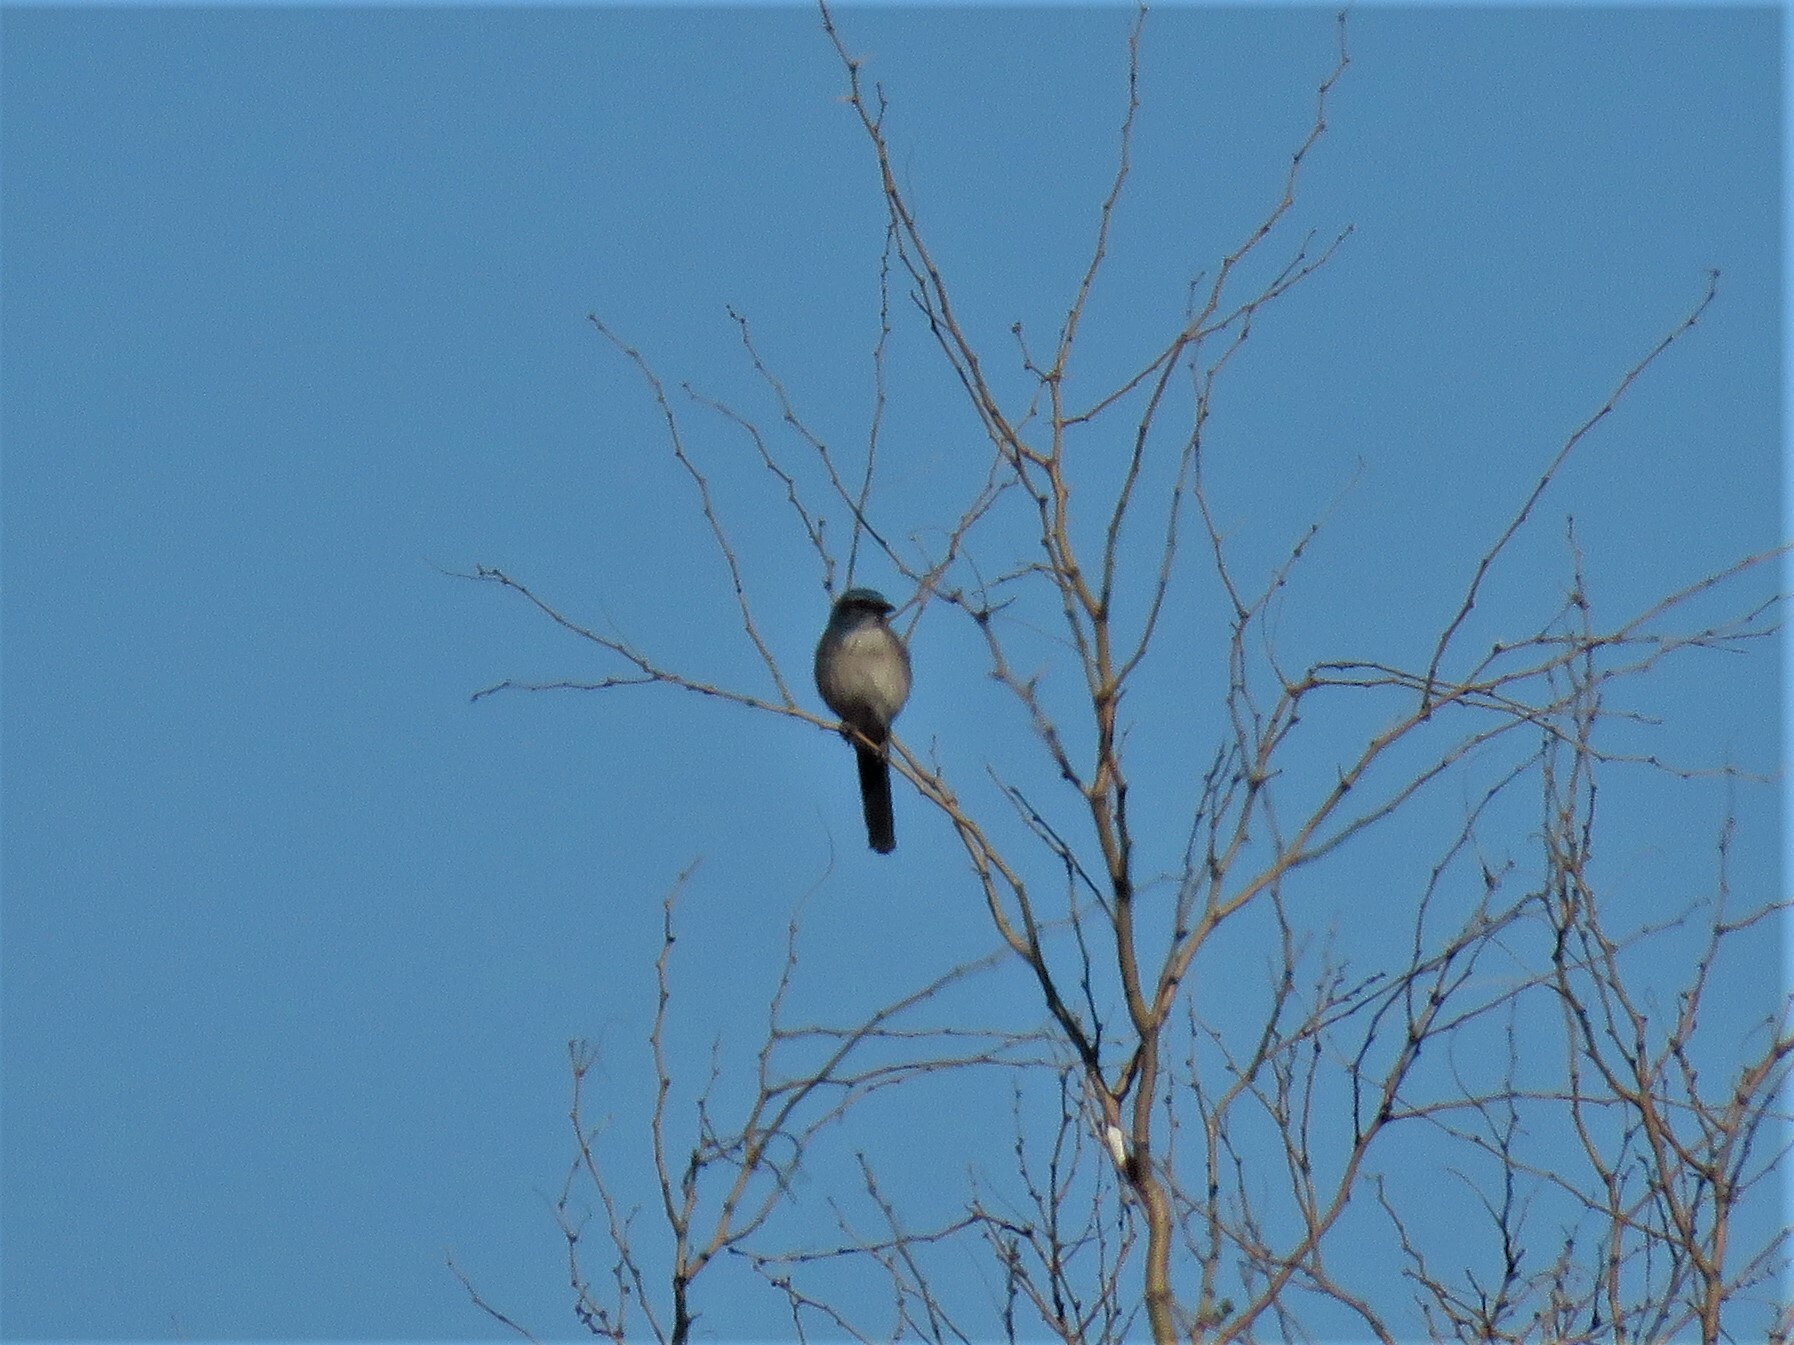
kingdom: Animalia
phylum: Chordata
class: Aves
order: Passeriformes
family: Corvidae
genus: Aphelocoma
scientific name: Aphelocoma woodhouseii
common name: Woodhouse's scrub-jay
